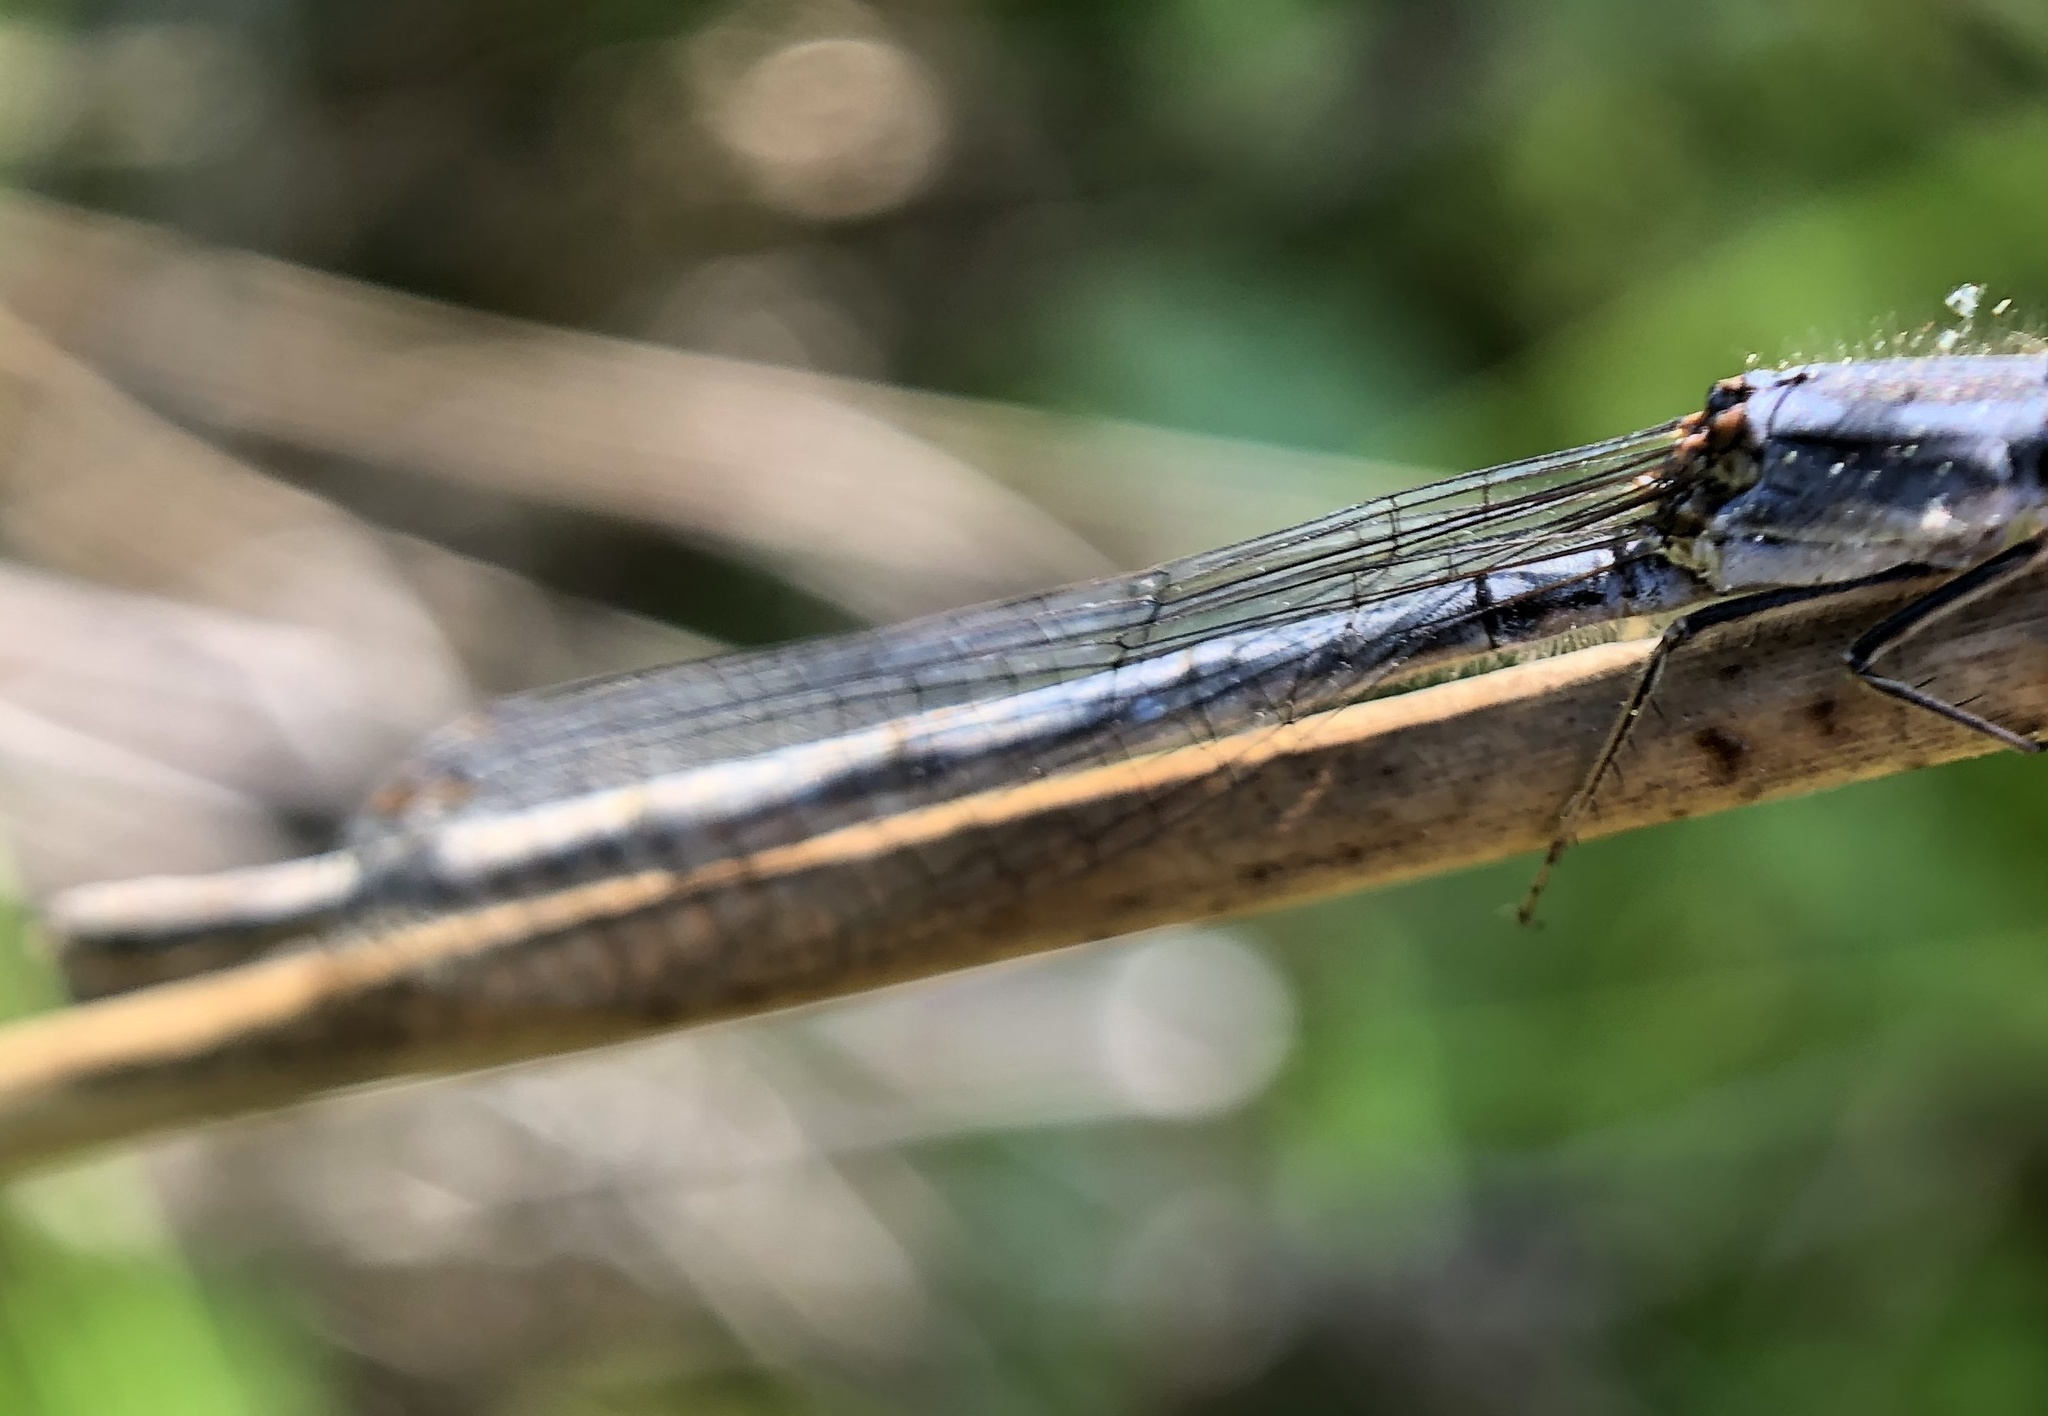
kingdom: Animalia
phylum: Arthropoda
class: Insecta
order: Odonata
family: Coenagrionidae
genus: Ischnura
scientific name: Ischnura posita
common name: Fragile forktail
